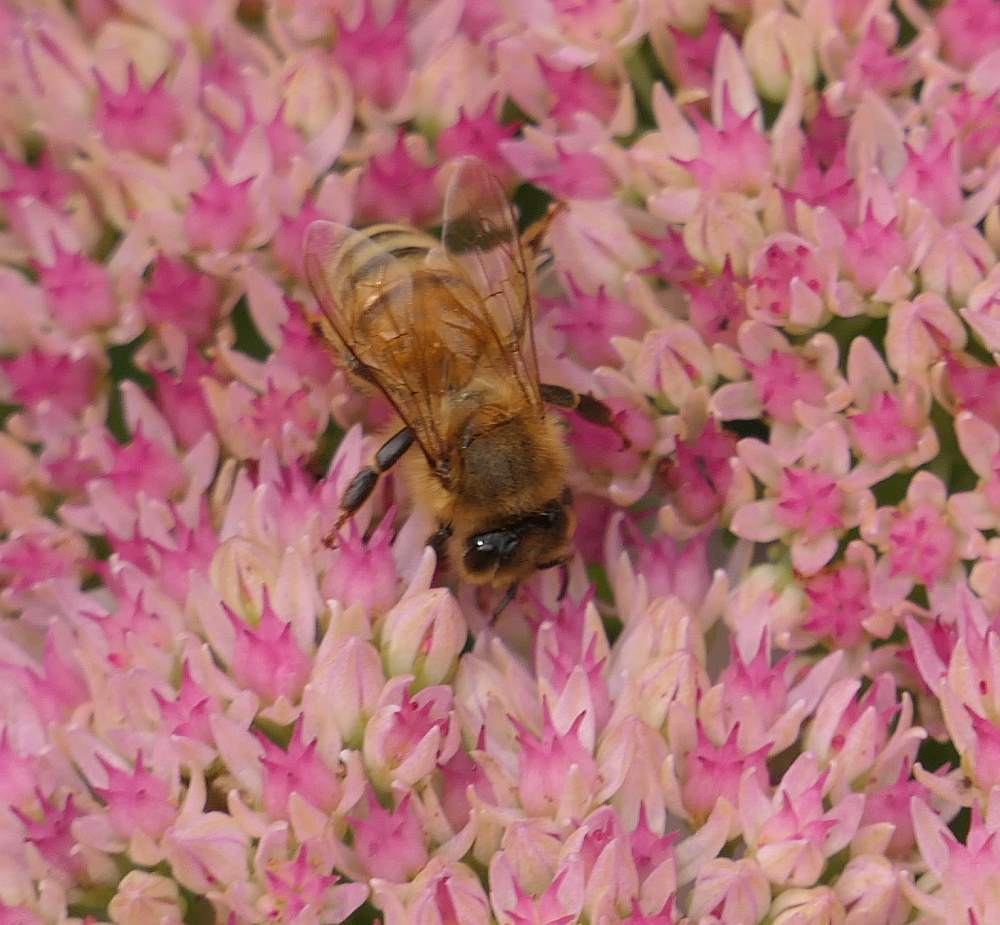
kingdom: Animalia
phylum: Arthropoda
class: Insecta
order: Hymenoptera
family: Apidae
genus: Apis
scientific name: Apis mellifera
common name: Honey bee
